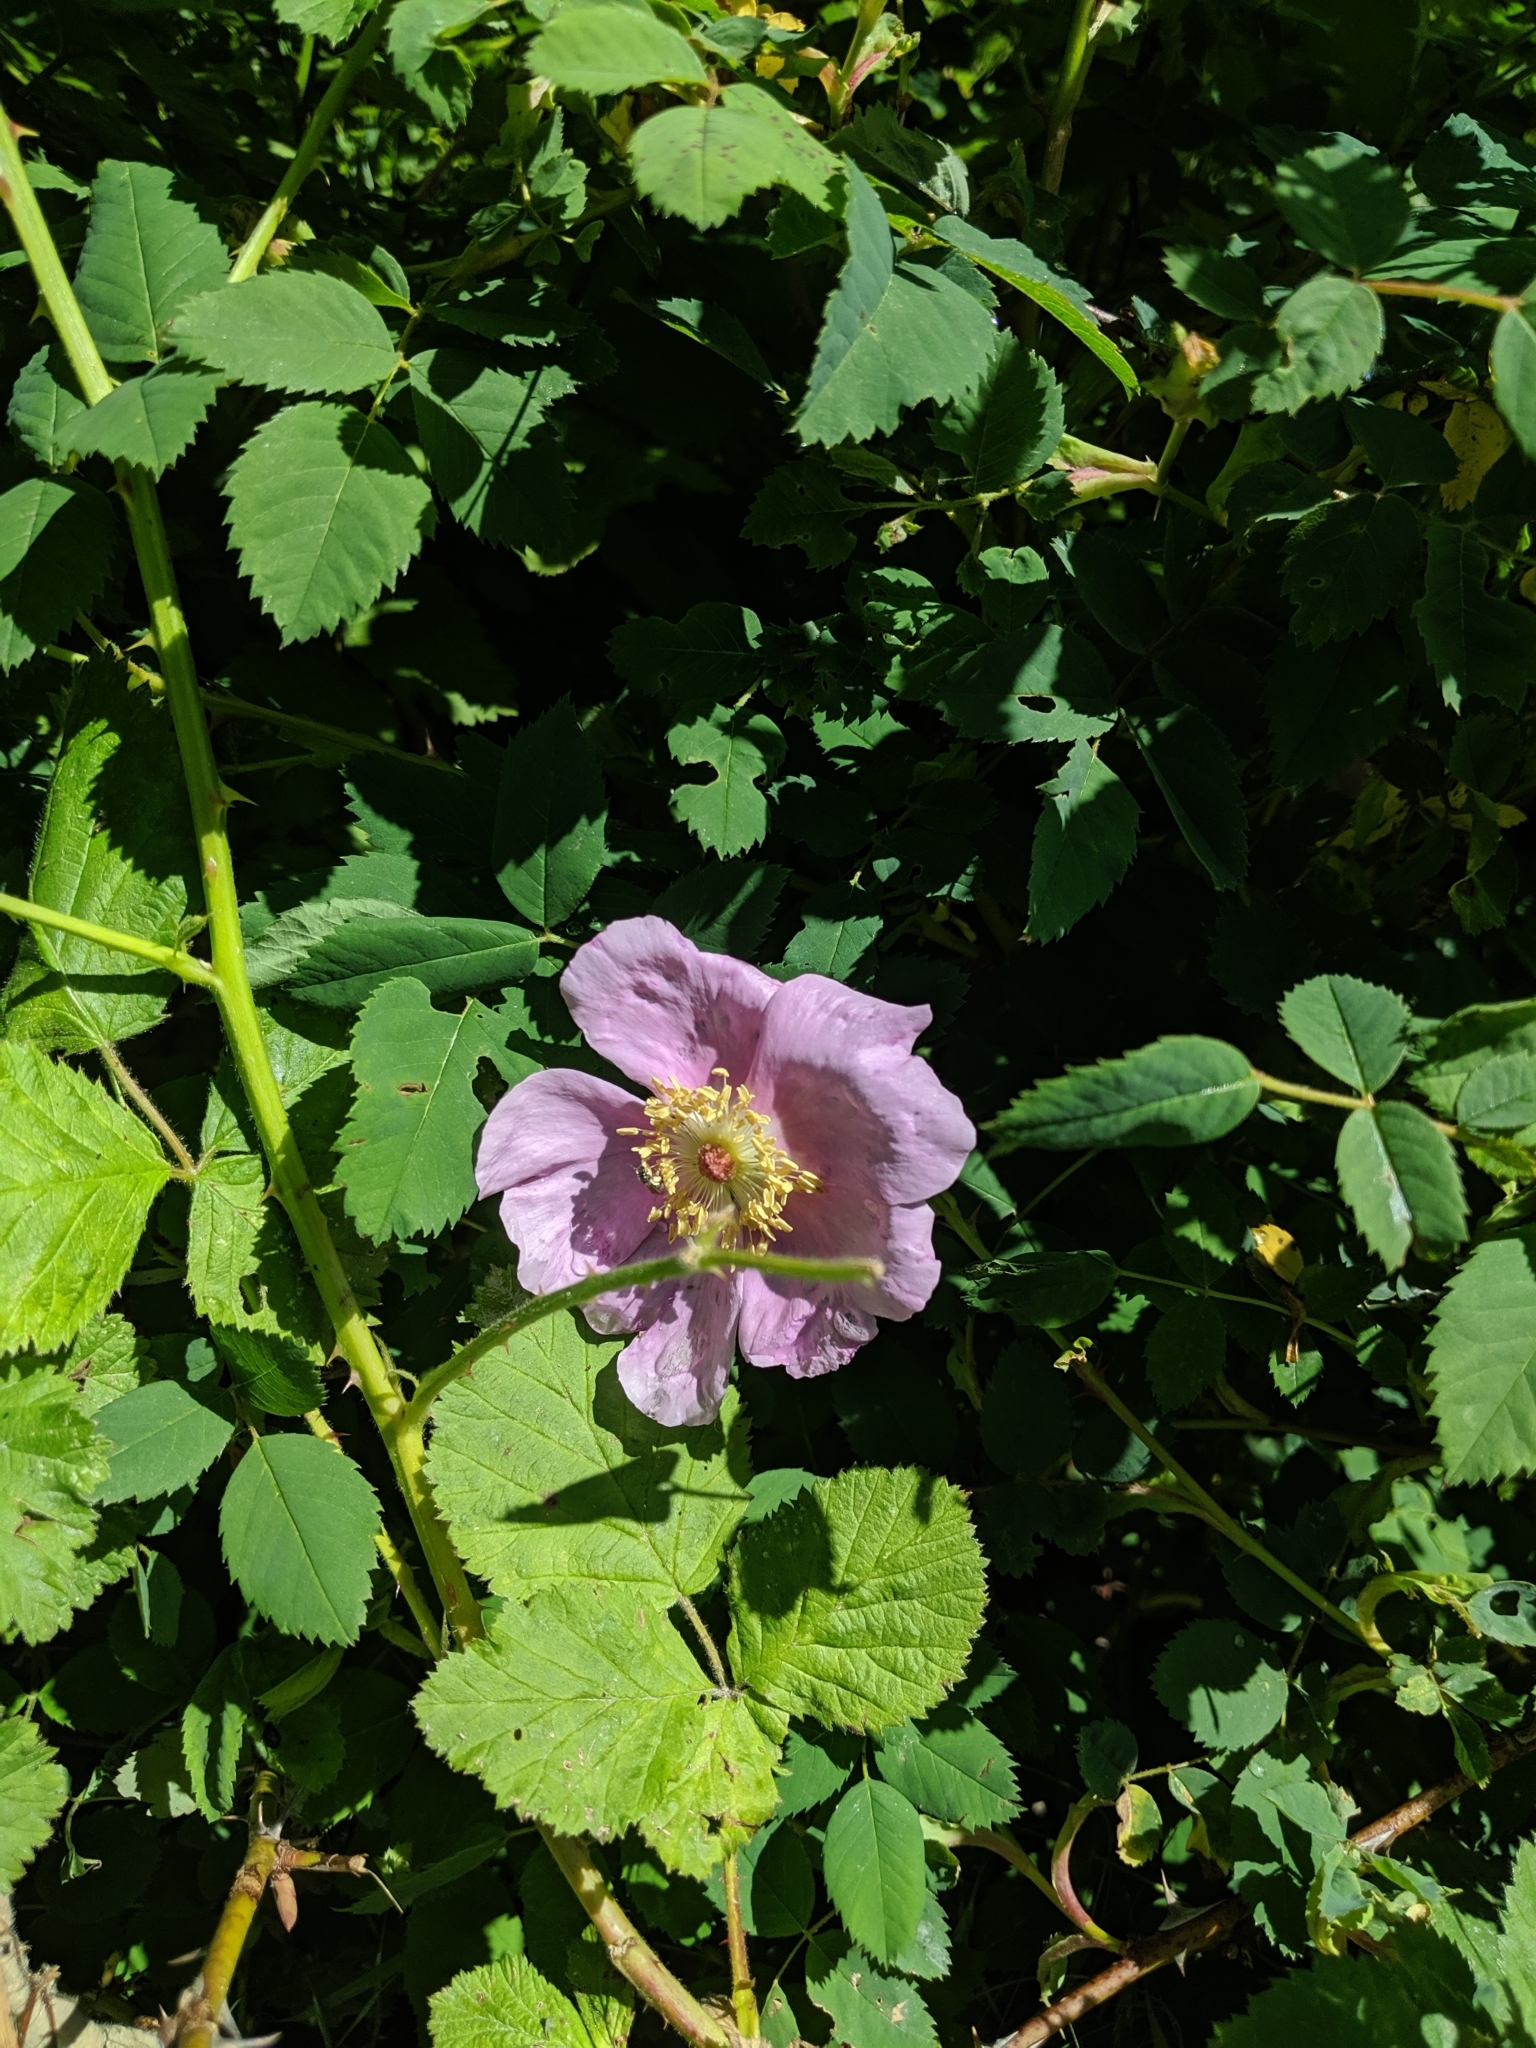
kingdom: Plantae
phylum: Tracheophyta
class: Magnoliopsida
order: Rosales
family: Rosaceae
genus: Rosa
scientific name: Rosa nutkana
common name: Nootka rose
